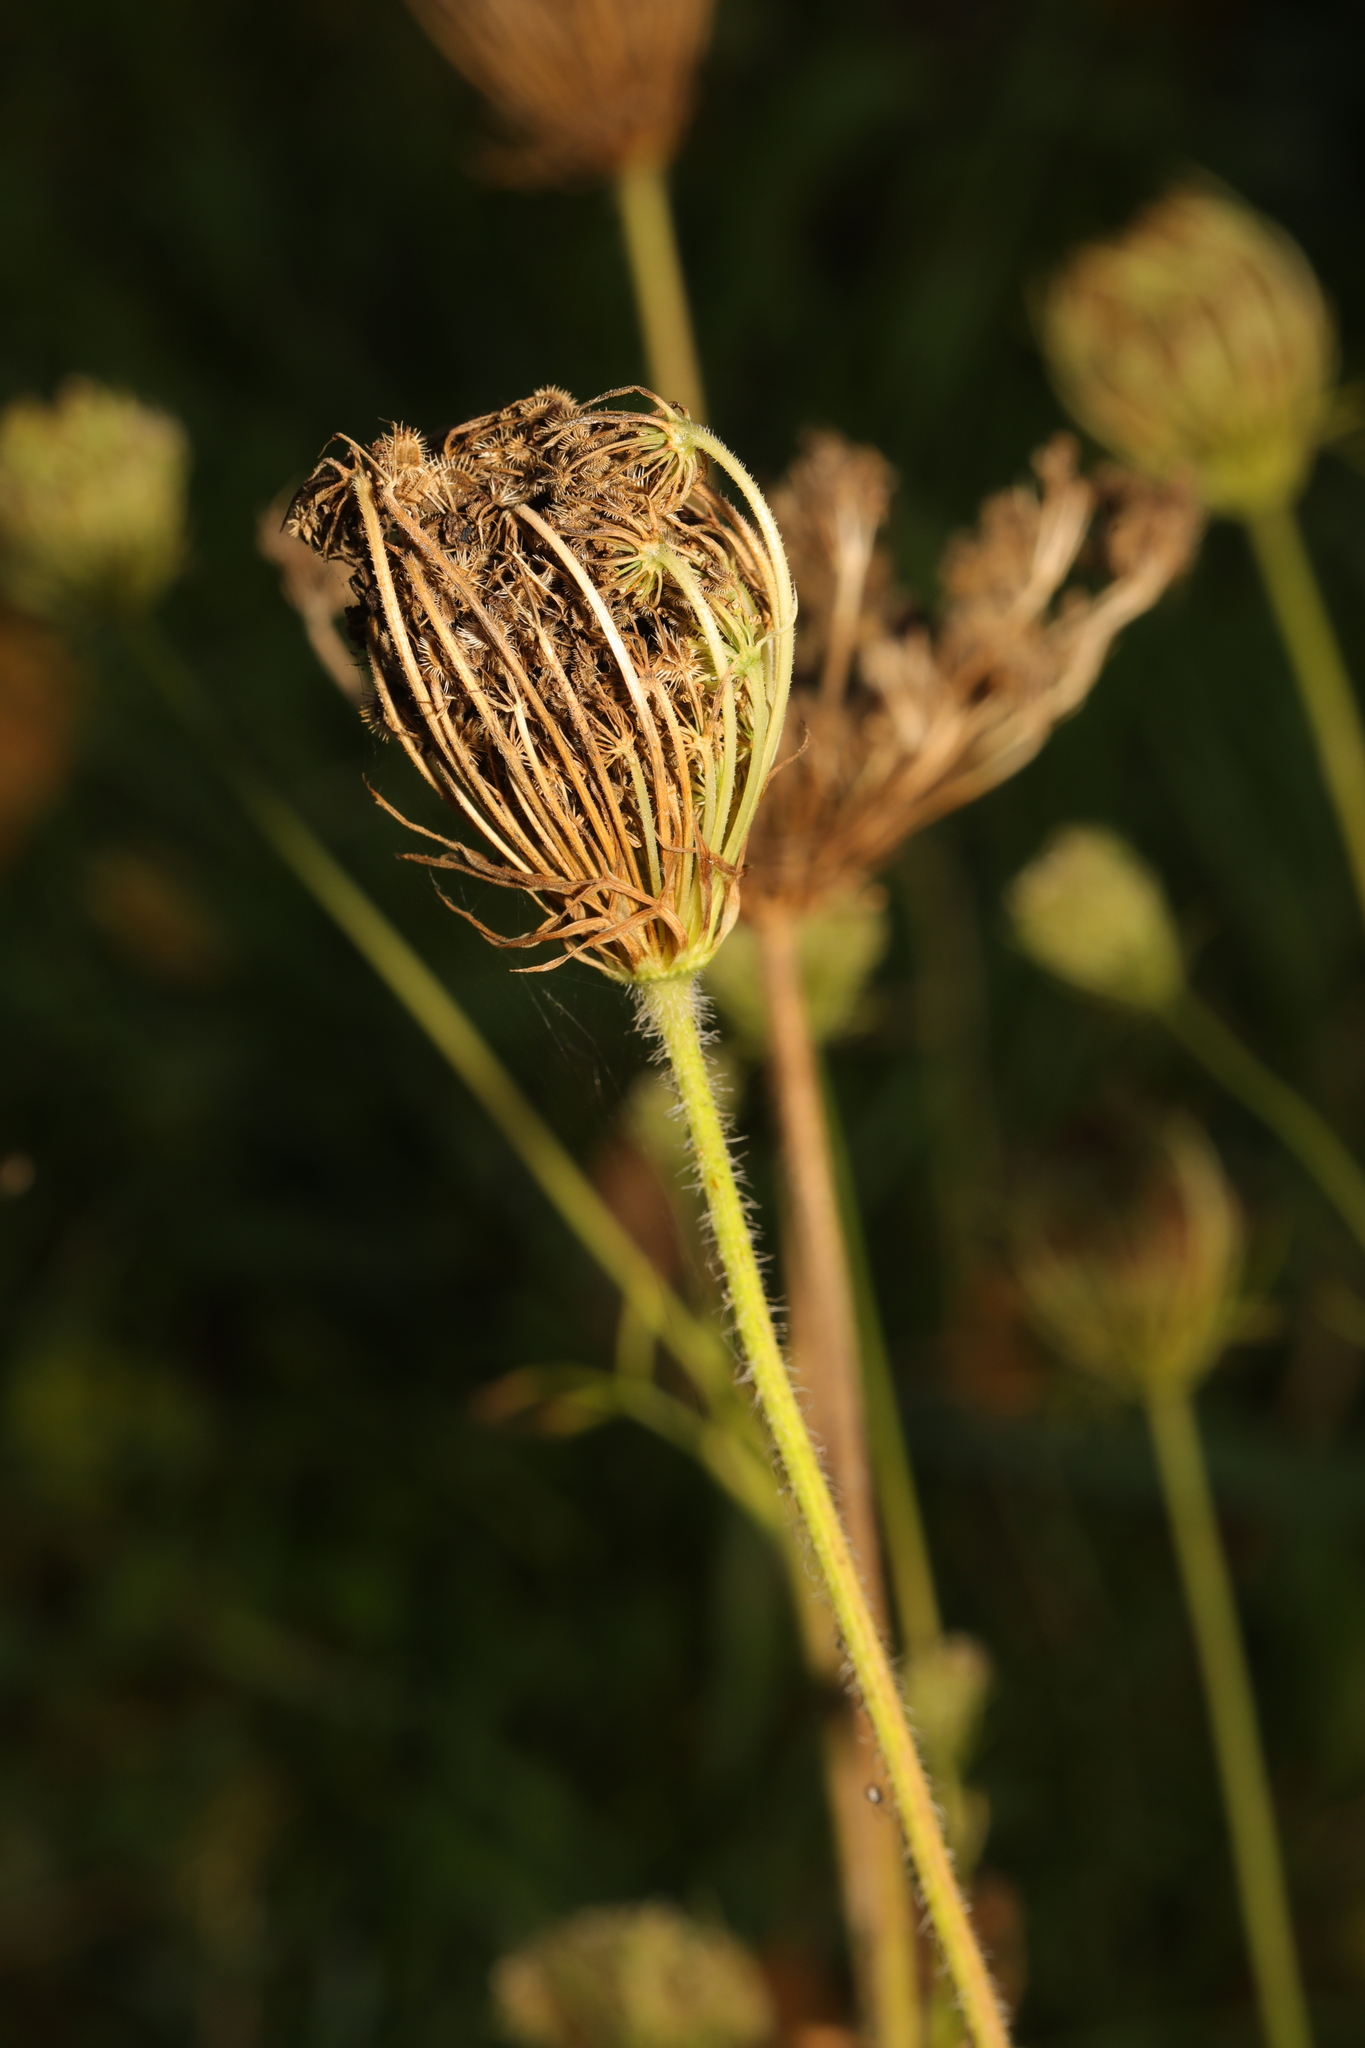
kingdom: Plantae
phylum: Tracheophyta
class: Magnoliopsida
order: Apiales
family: Apiaceae
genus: Daucus
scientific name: Daucus carota
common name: Wild carrot
